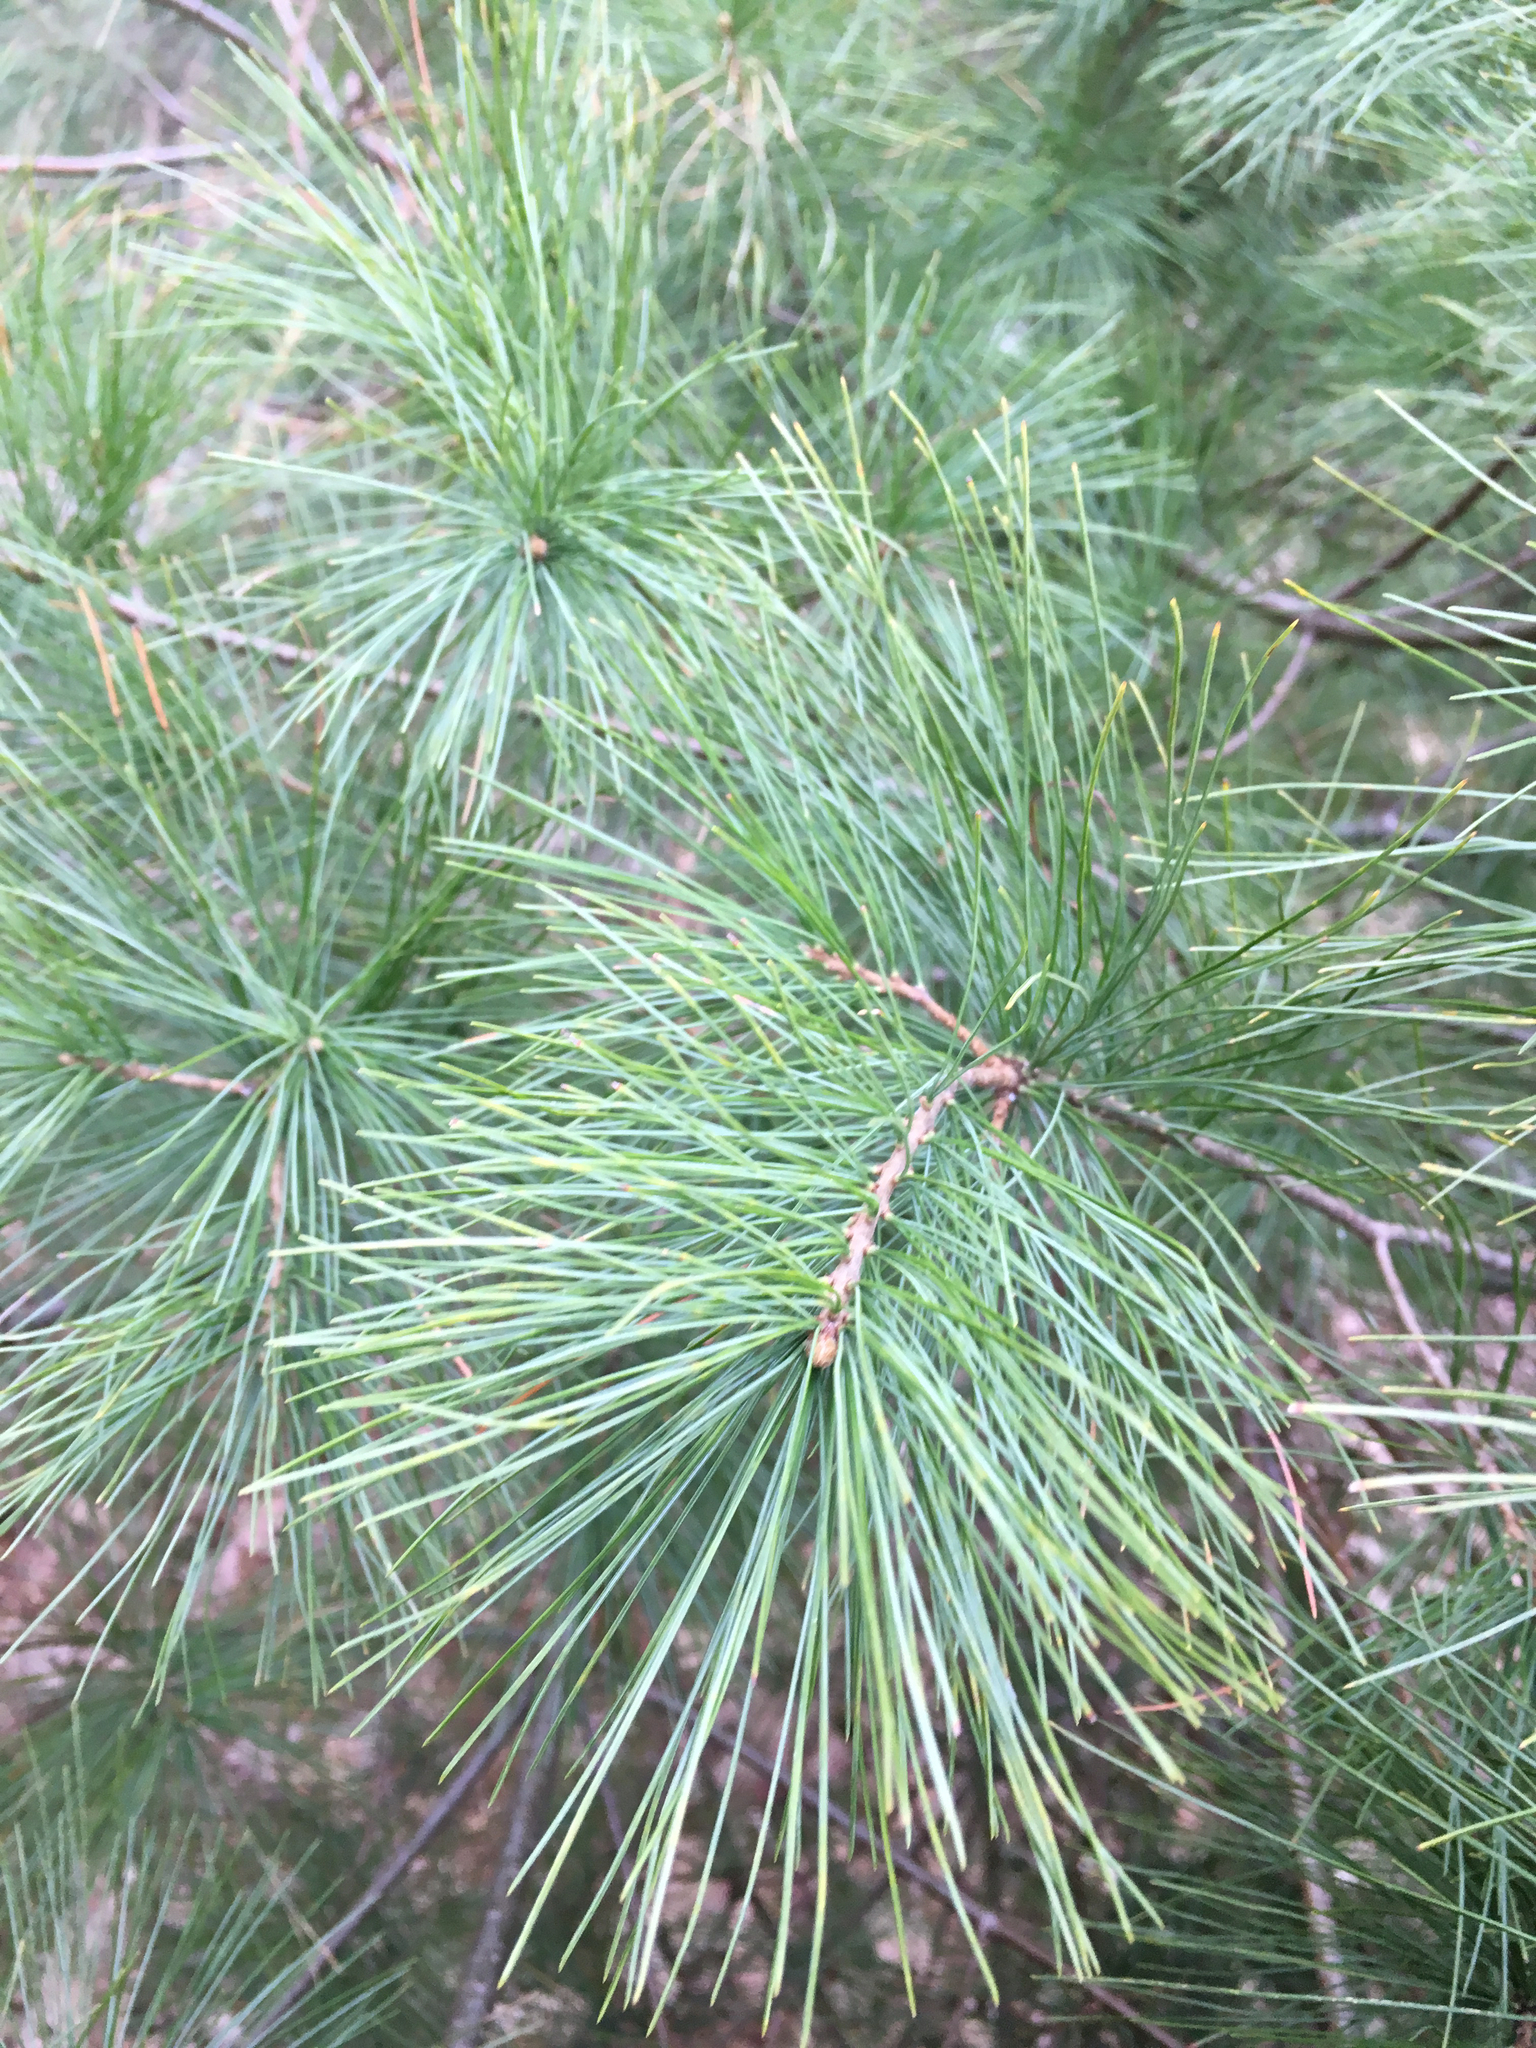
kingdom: Plantae
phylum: Tracheophyta
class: Pinopsida
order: Pinales
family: Pinaceae
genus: Pinus
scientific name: Pinus strobus
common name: Weymouth pine
